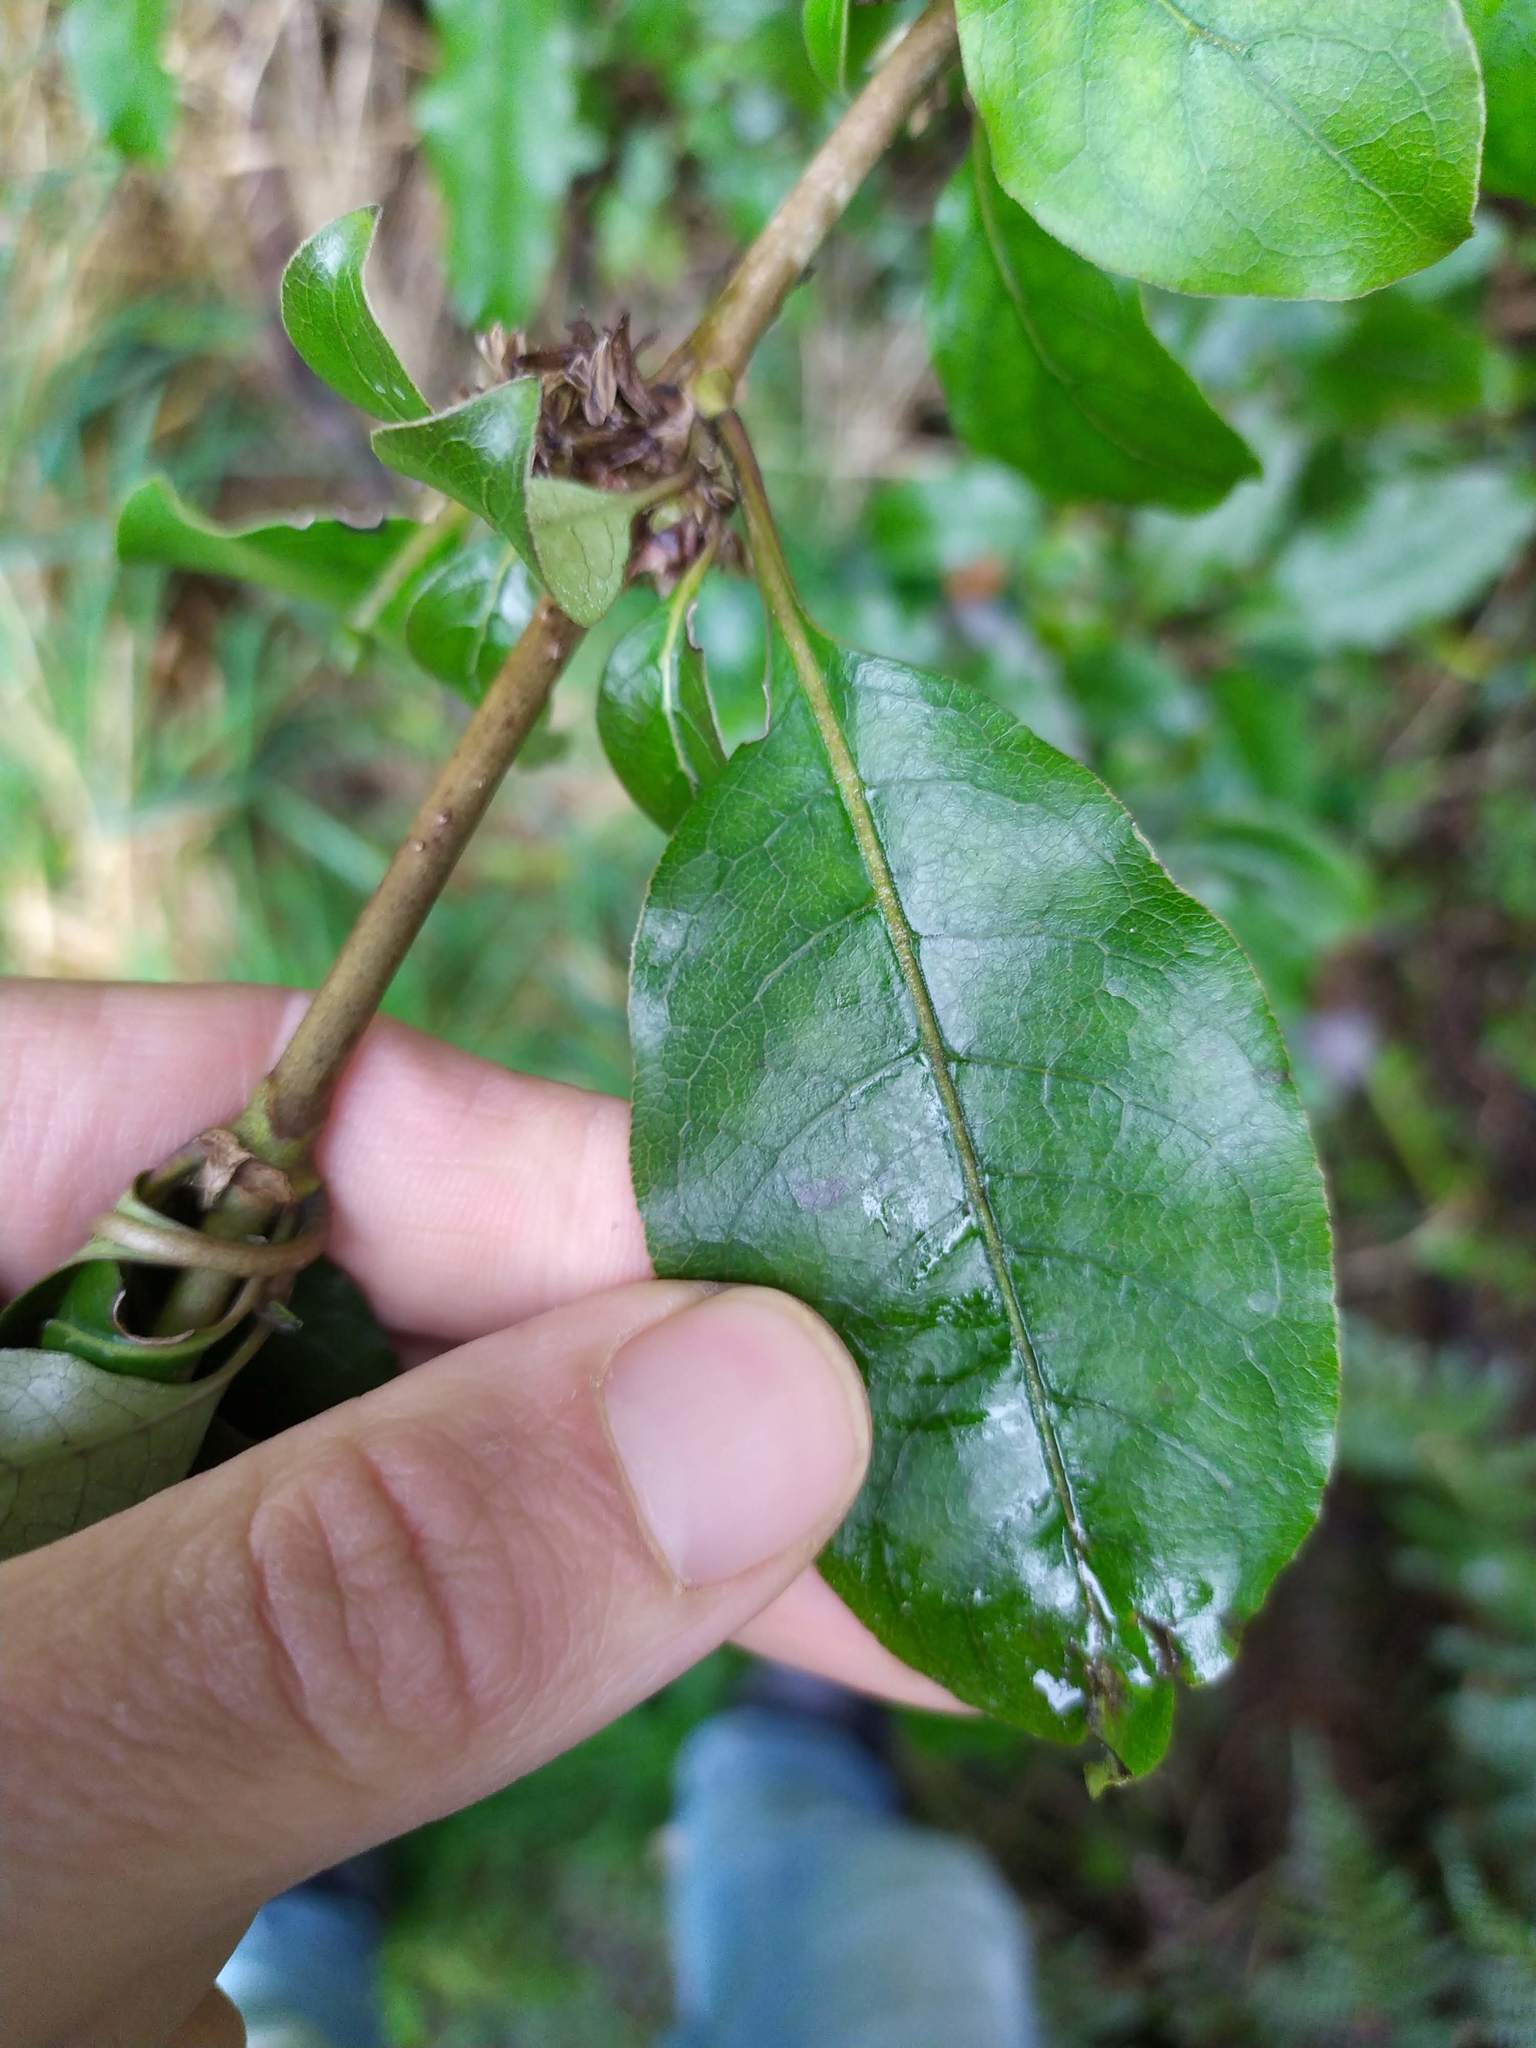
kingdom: Plantae
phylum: Tracheophyta
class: Magnoliopsida
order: Gentianales
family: Rubiaceae
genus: Coprosma
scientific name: Coprosma tenuifolia
